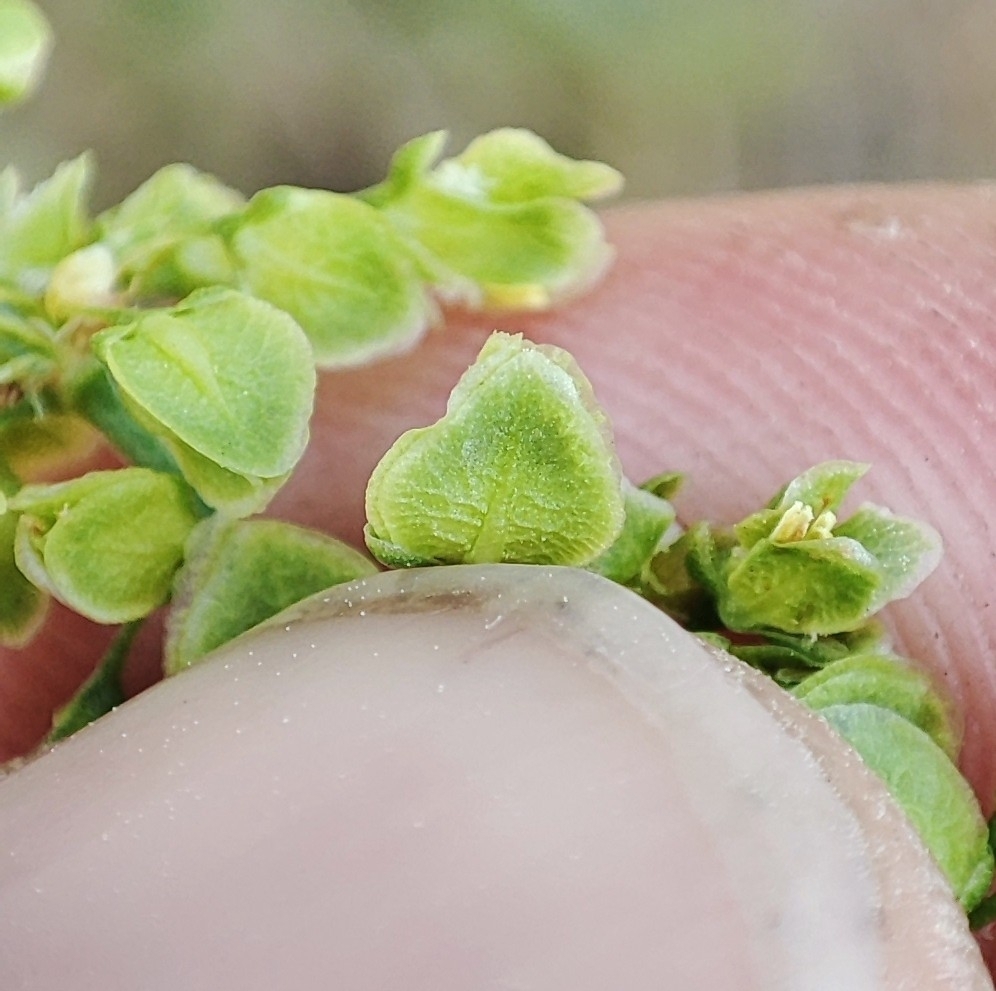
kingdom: Plantae
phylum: Tracheophyta
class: Magnoliopsida
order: Caryophyllales
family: Polygonaceae
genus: Rumex
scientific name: Rumex longifolius
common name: Dooryard dock
